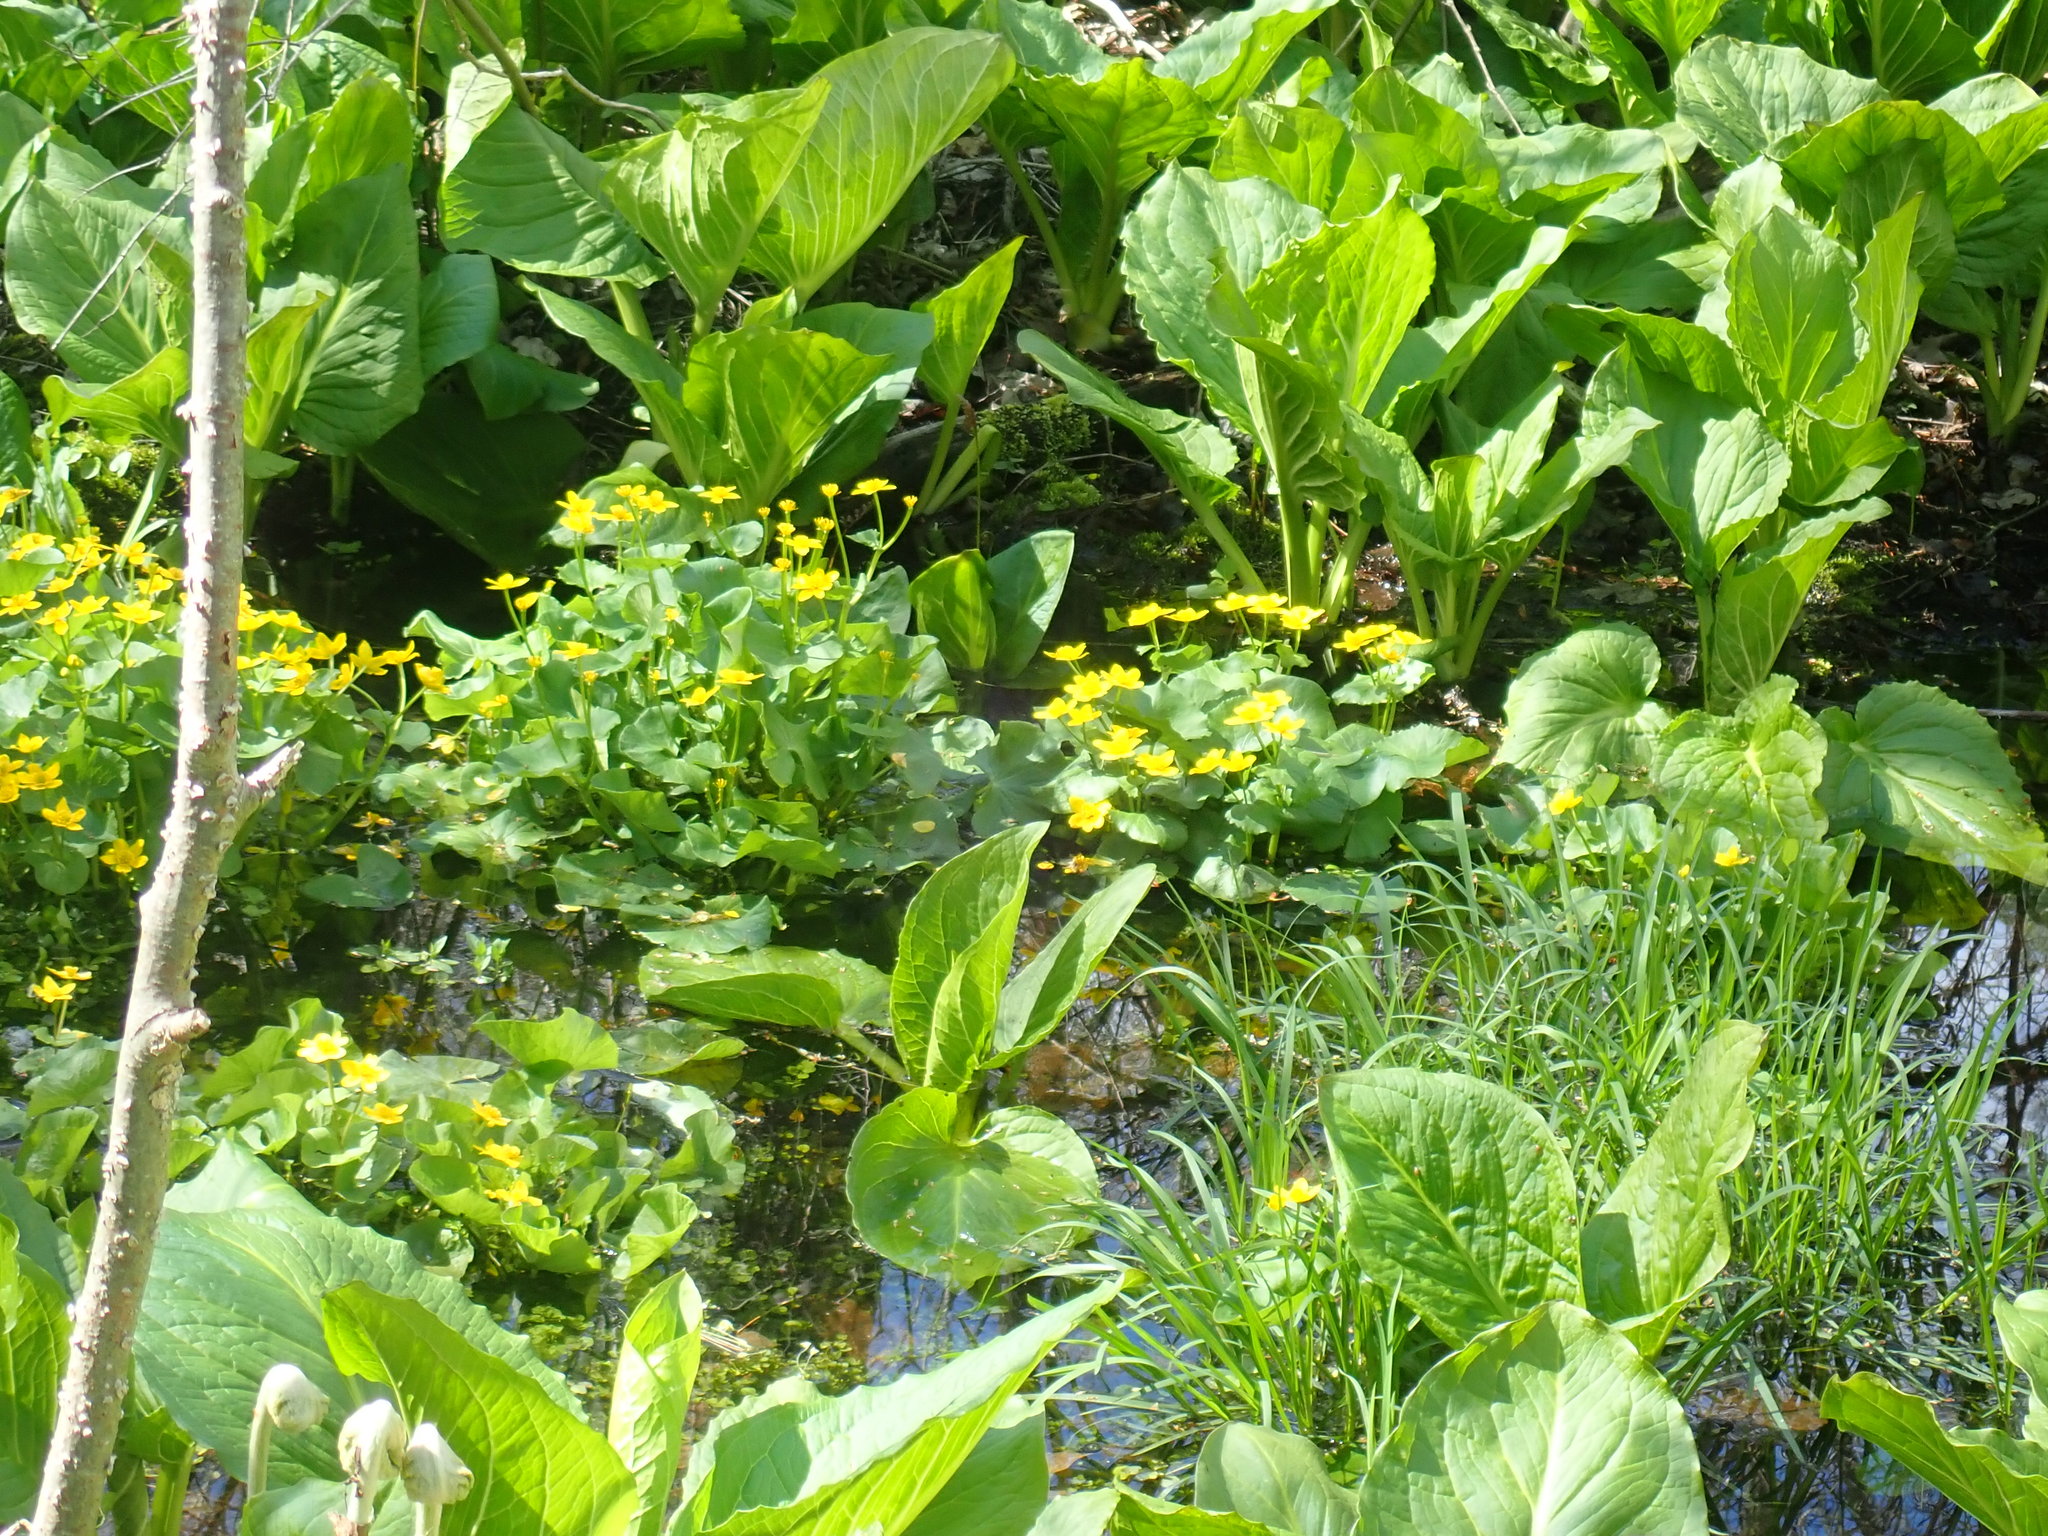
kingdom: Plantae
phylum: Tracheophyta
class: Magnoliopsida
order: Ranunculales
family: Ranunculaceae
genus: Caltha
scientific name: Caltha palustris
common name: Marsh marigold
